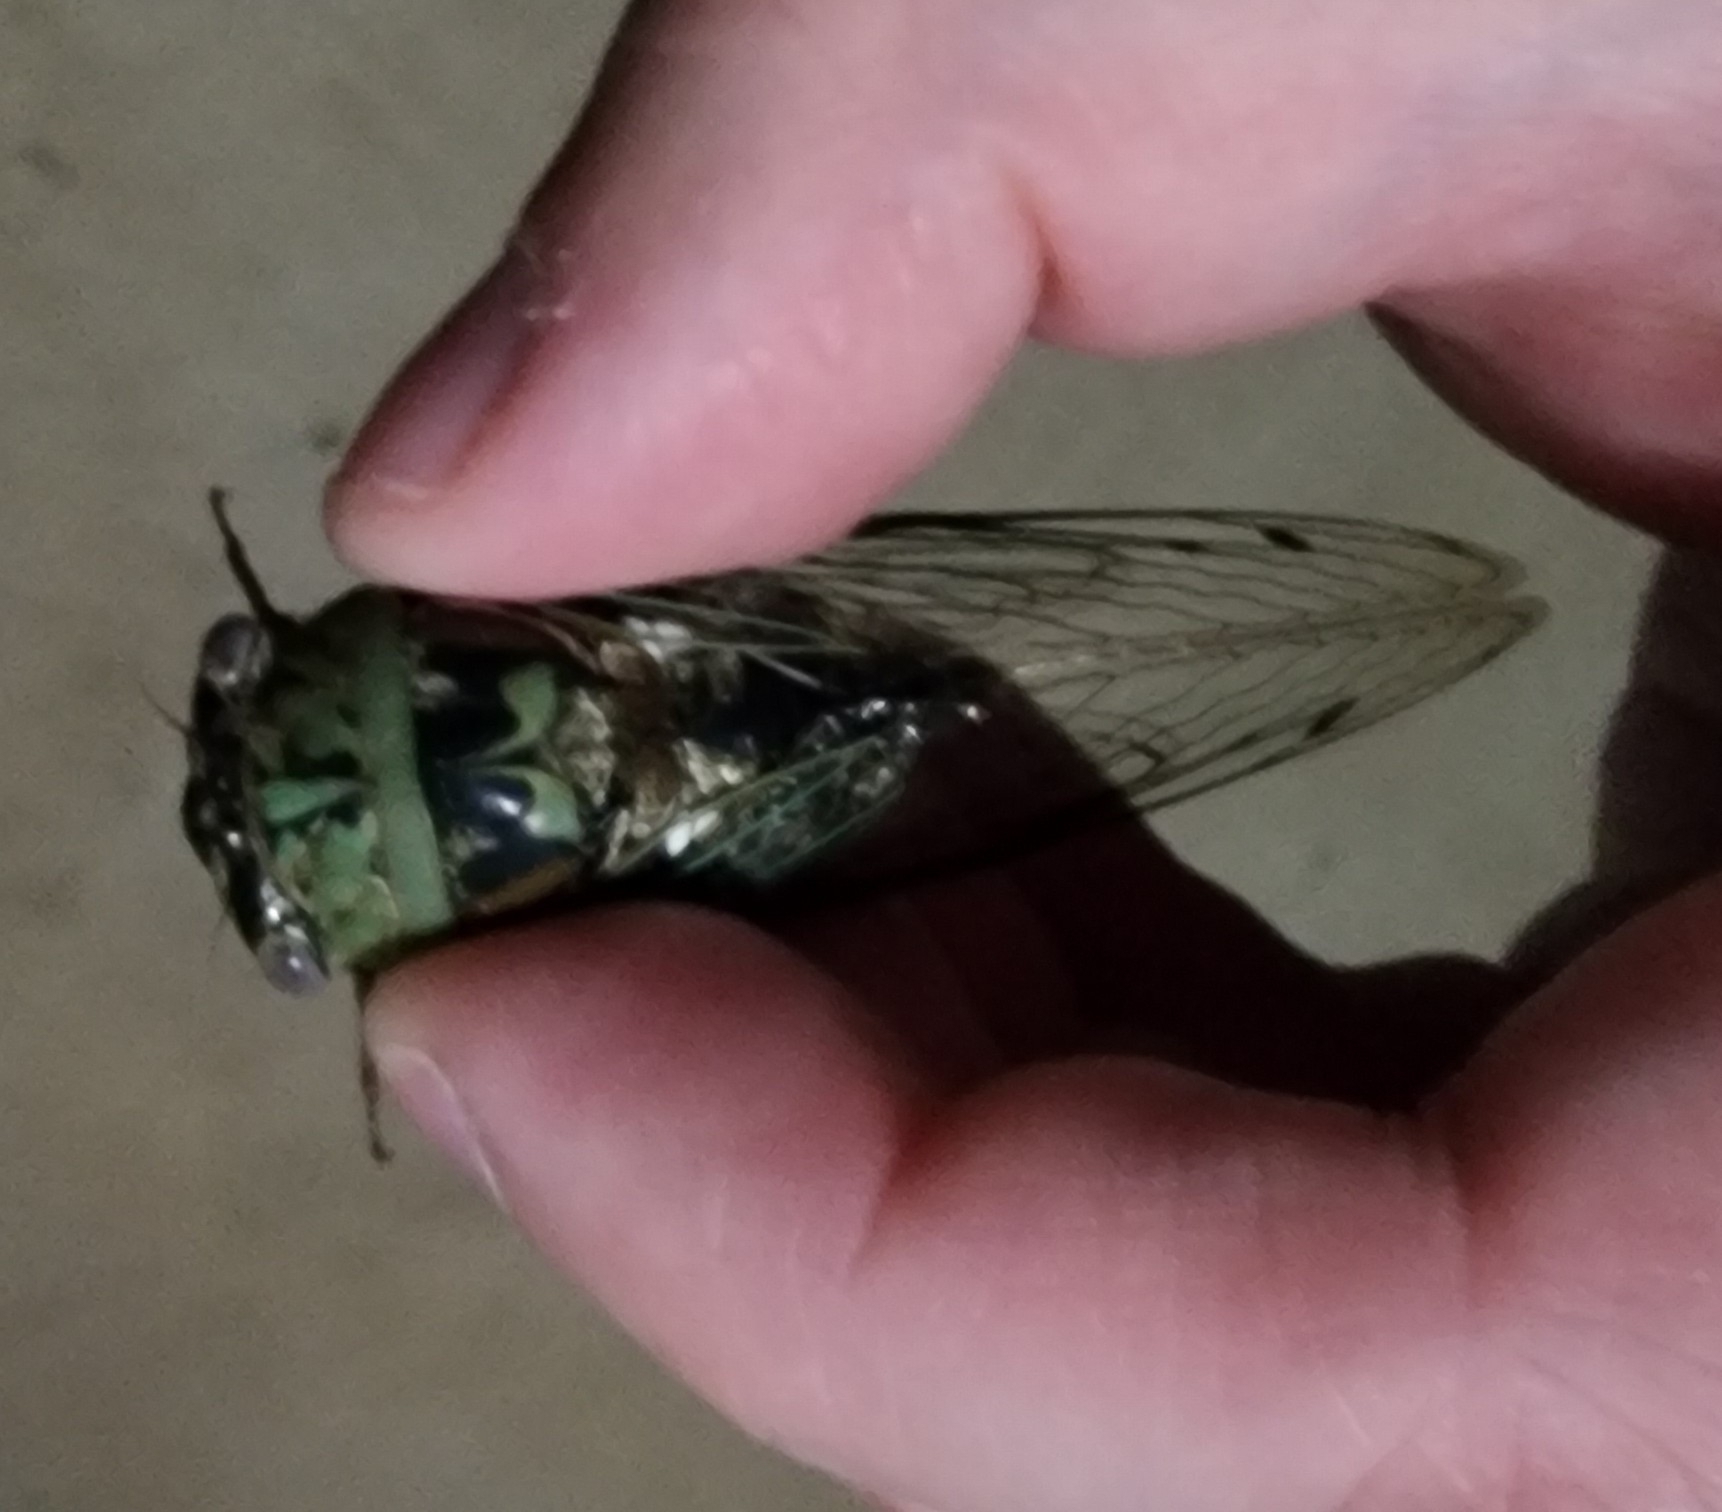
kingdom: Animalia
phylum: Arthropoda
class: Insecta
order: Hemiptera
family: Cicadidae
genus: Megatibicen
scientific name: Megatibicen resh
